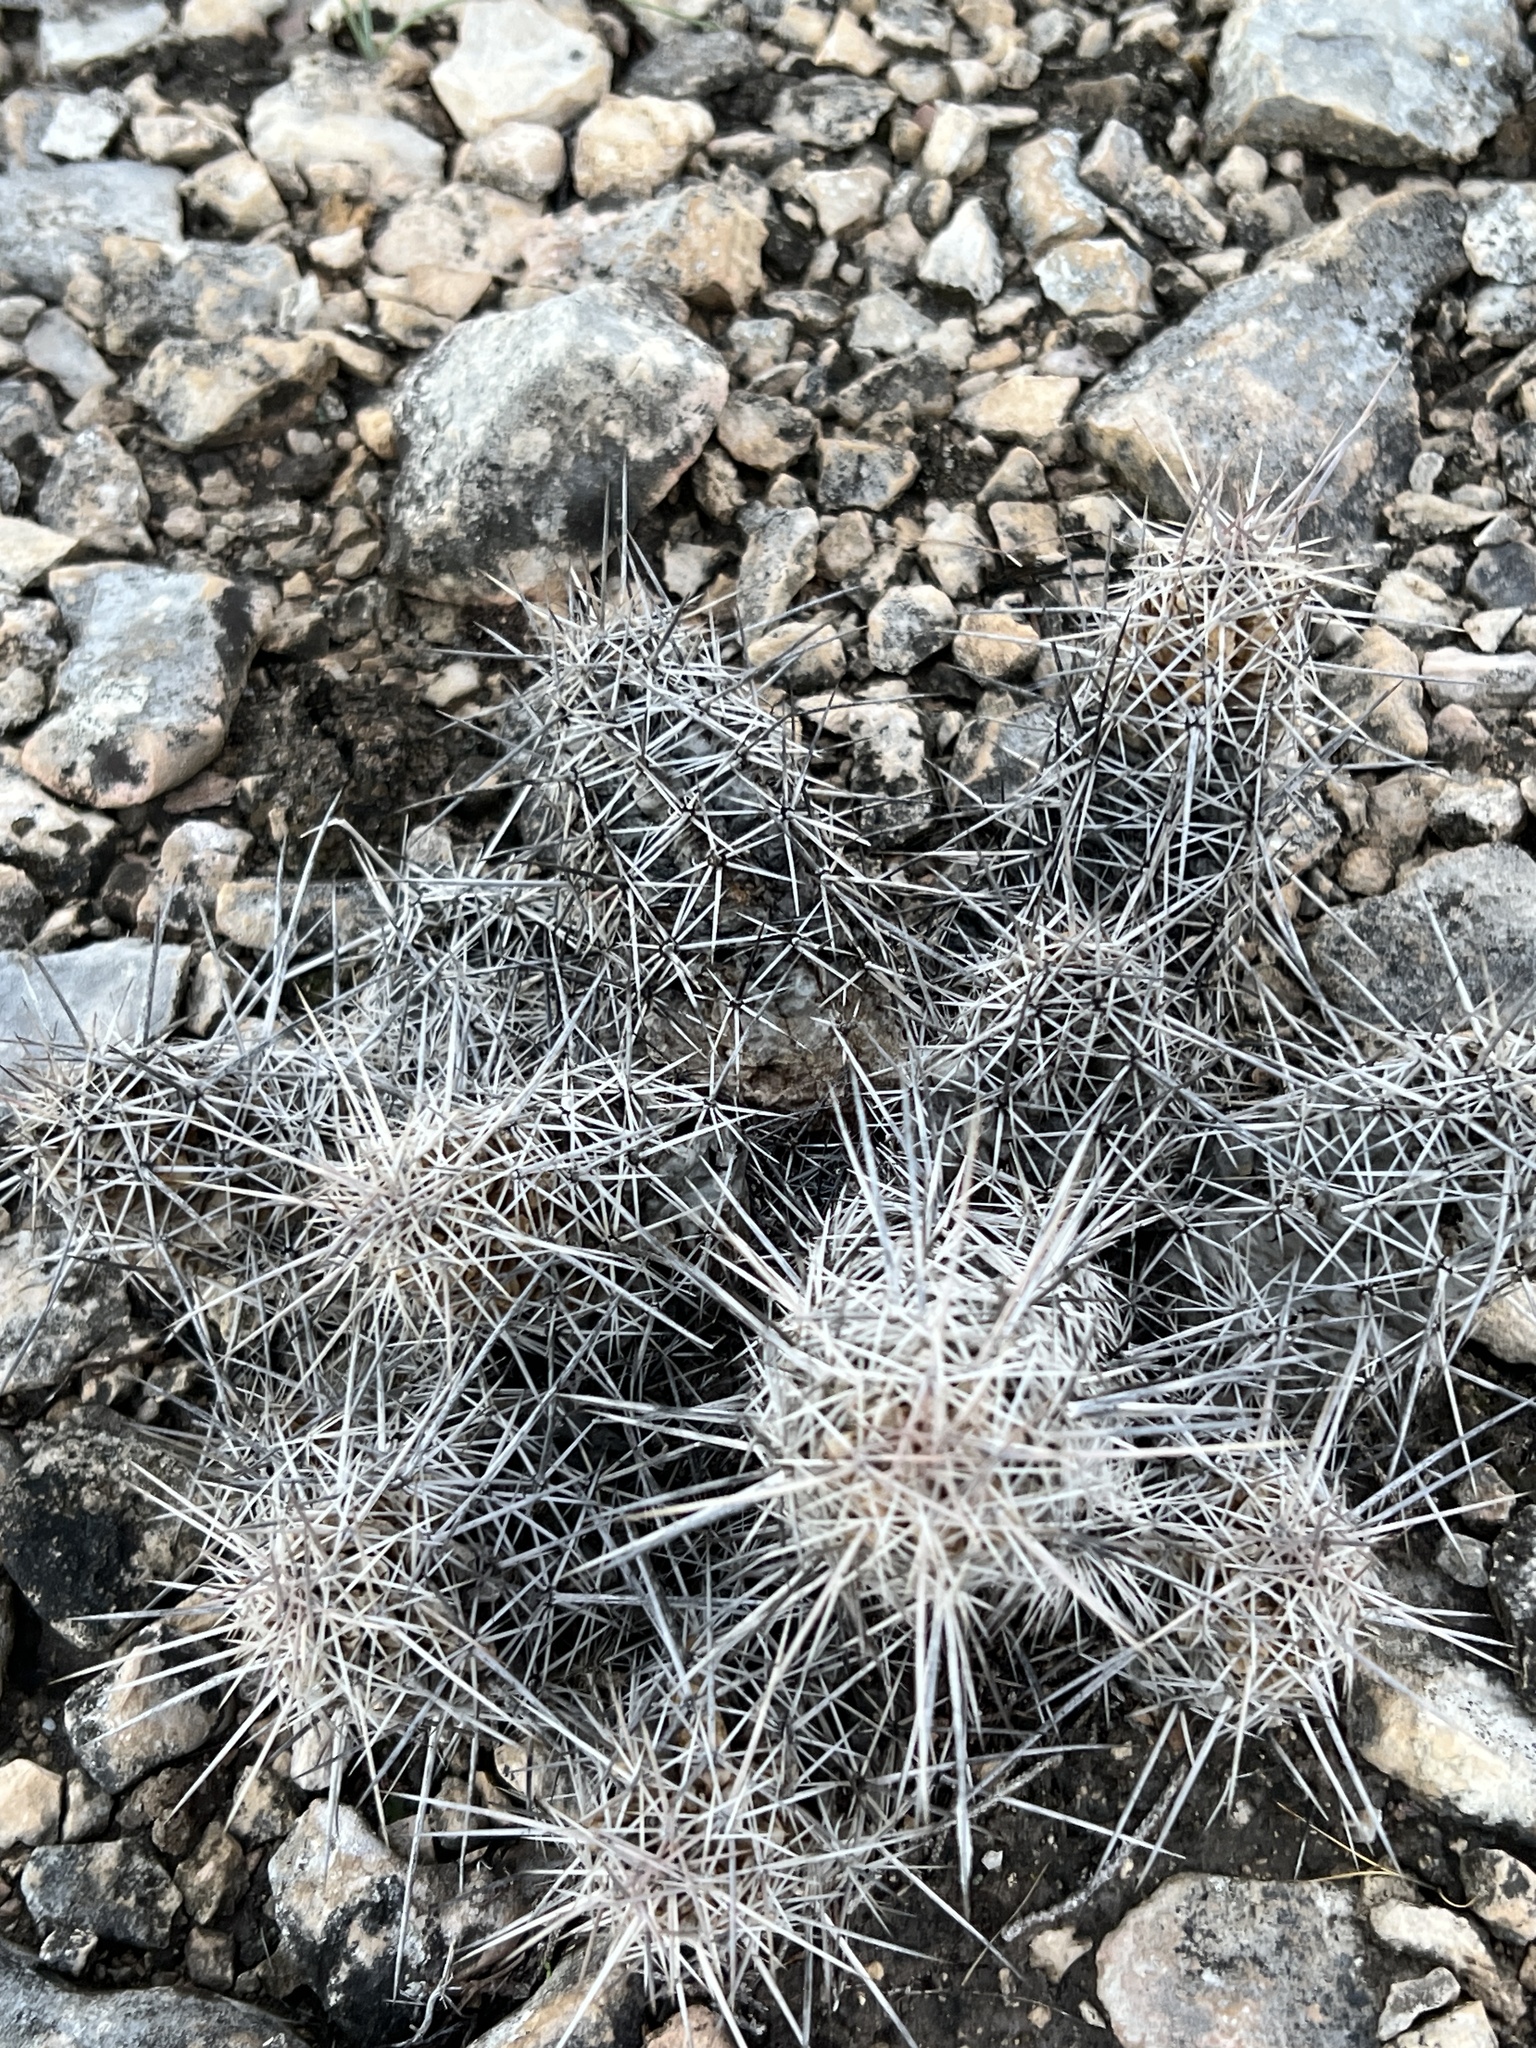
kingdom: Plantae
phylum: Tracheophyta
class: Magnoliopsida
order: Caryophyllales
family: Cactaceae
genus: Echinocereus
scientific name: Echinocereus enneacanthus
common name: Pitaya
